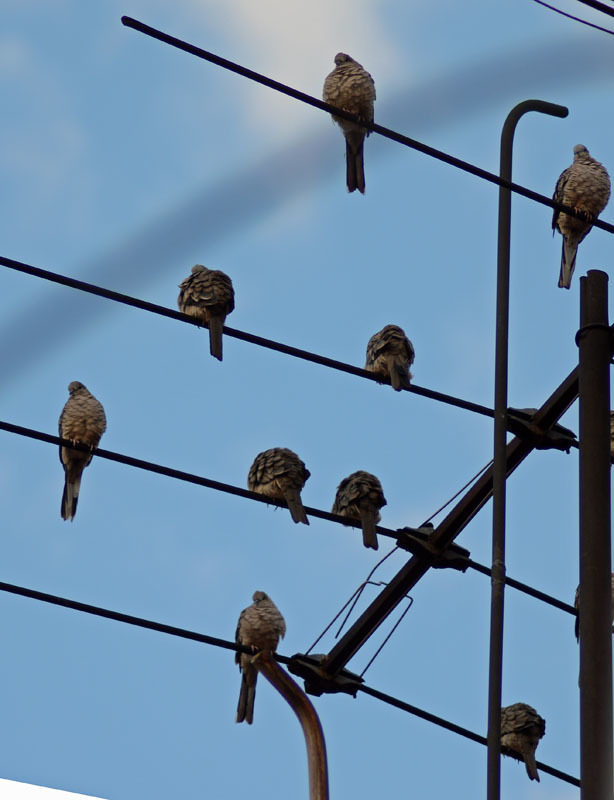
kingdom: Animalia
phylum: Chordata
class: Aves
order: Columbiformes
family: Columbidae
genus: Columbina
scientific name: Columbina inca
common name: Inca dove
